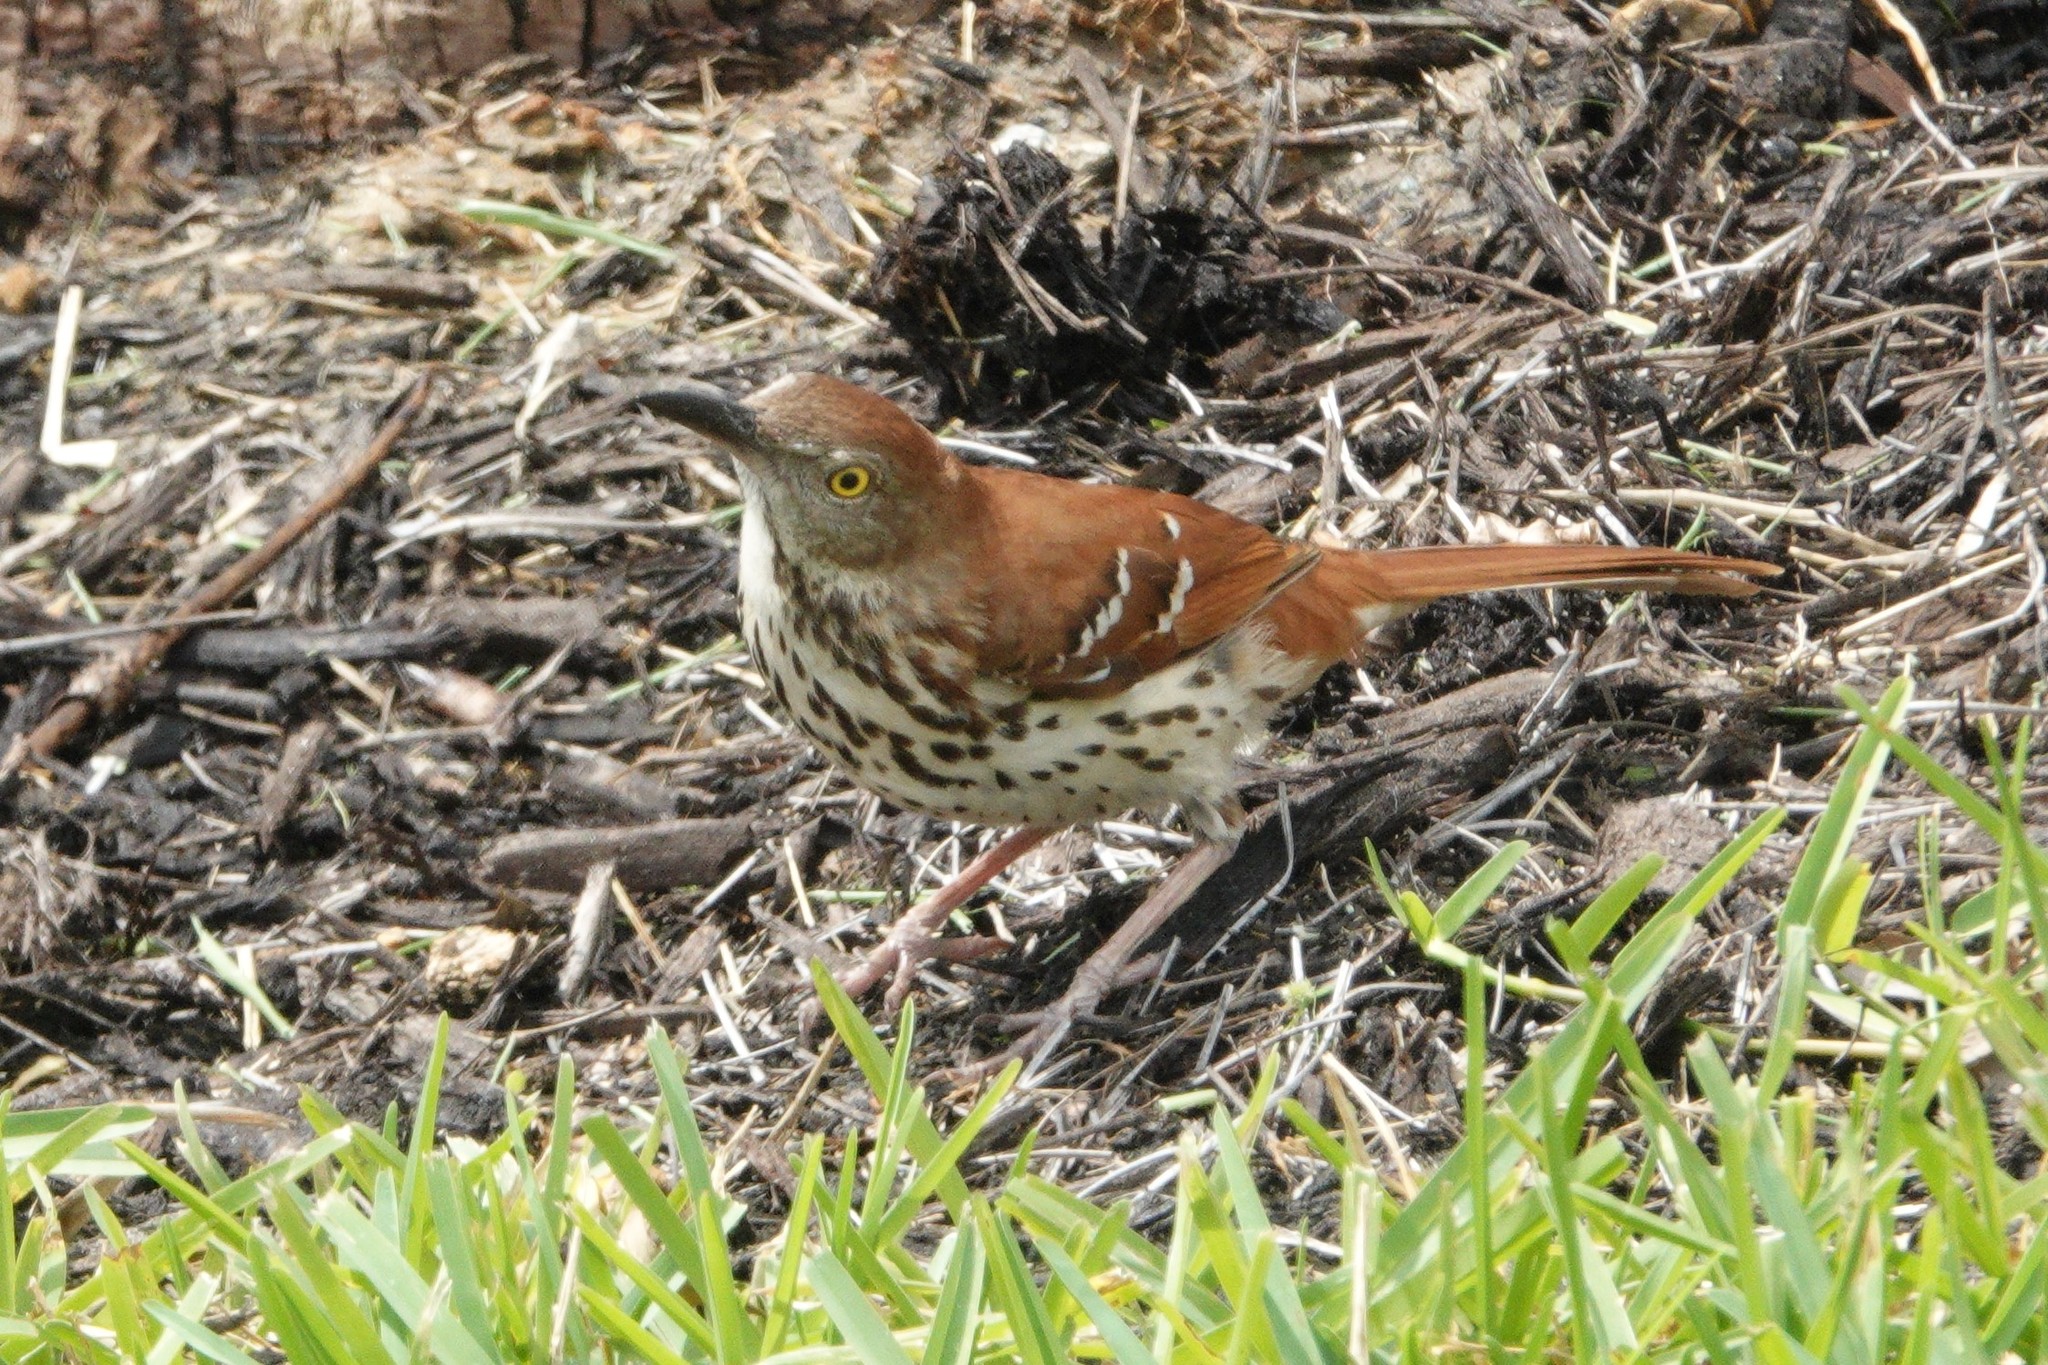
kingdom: Animalia
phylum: Chordata
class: Aves
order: Passeriformes
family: Mimidae
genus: Toxostoma
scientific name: Toxostoma rufum
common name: Brown thrasher
